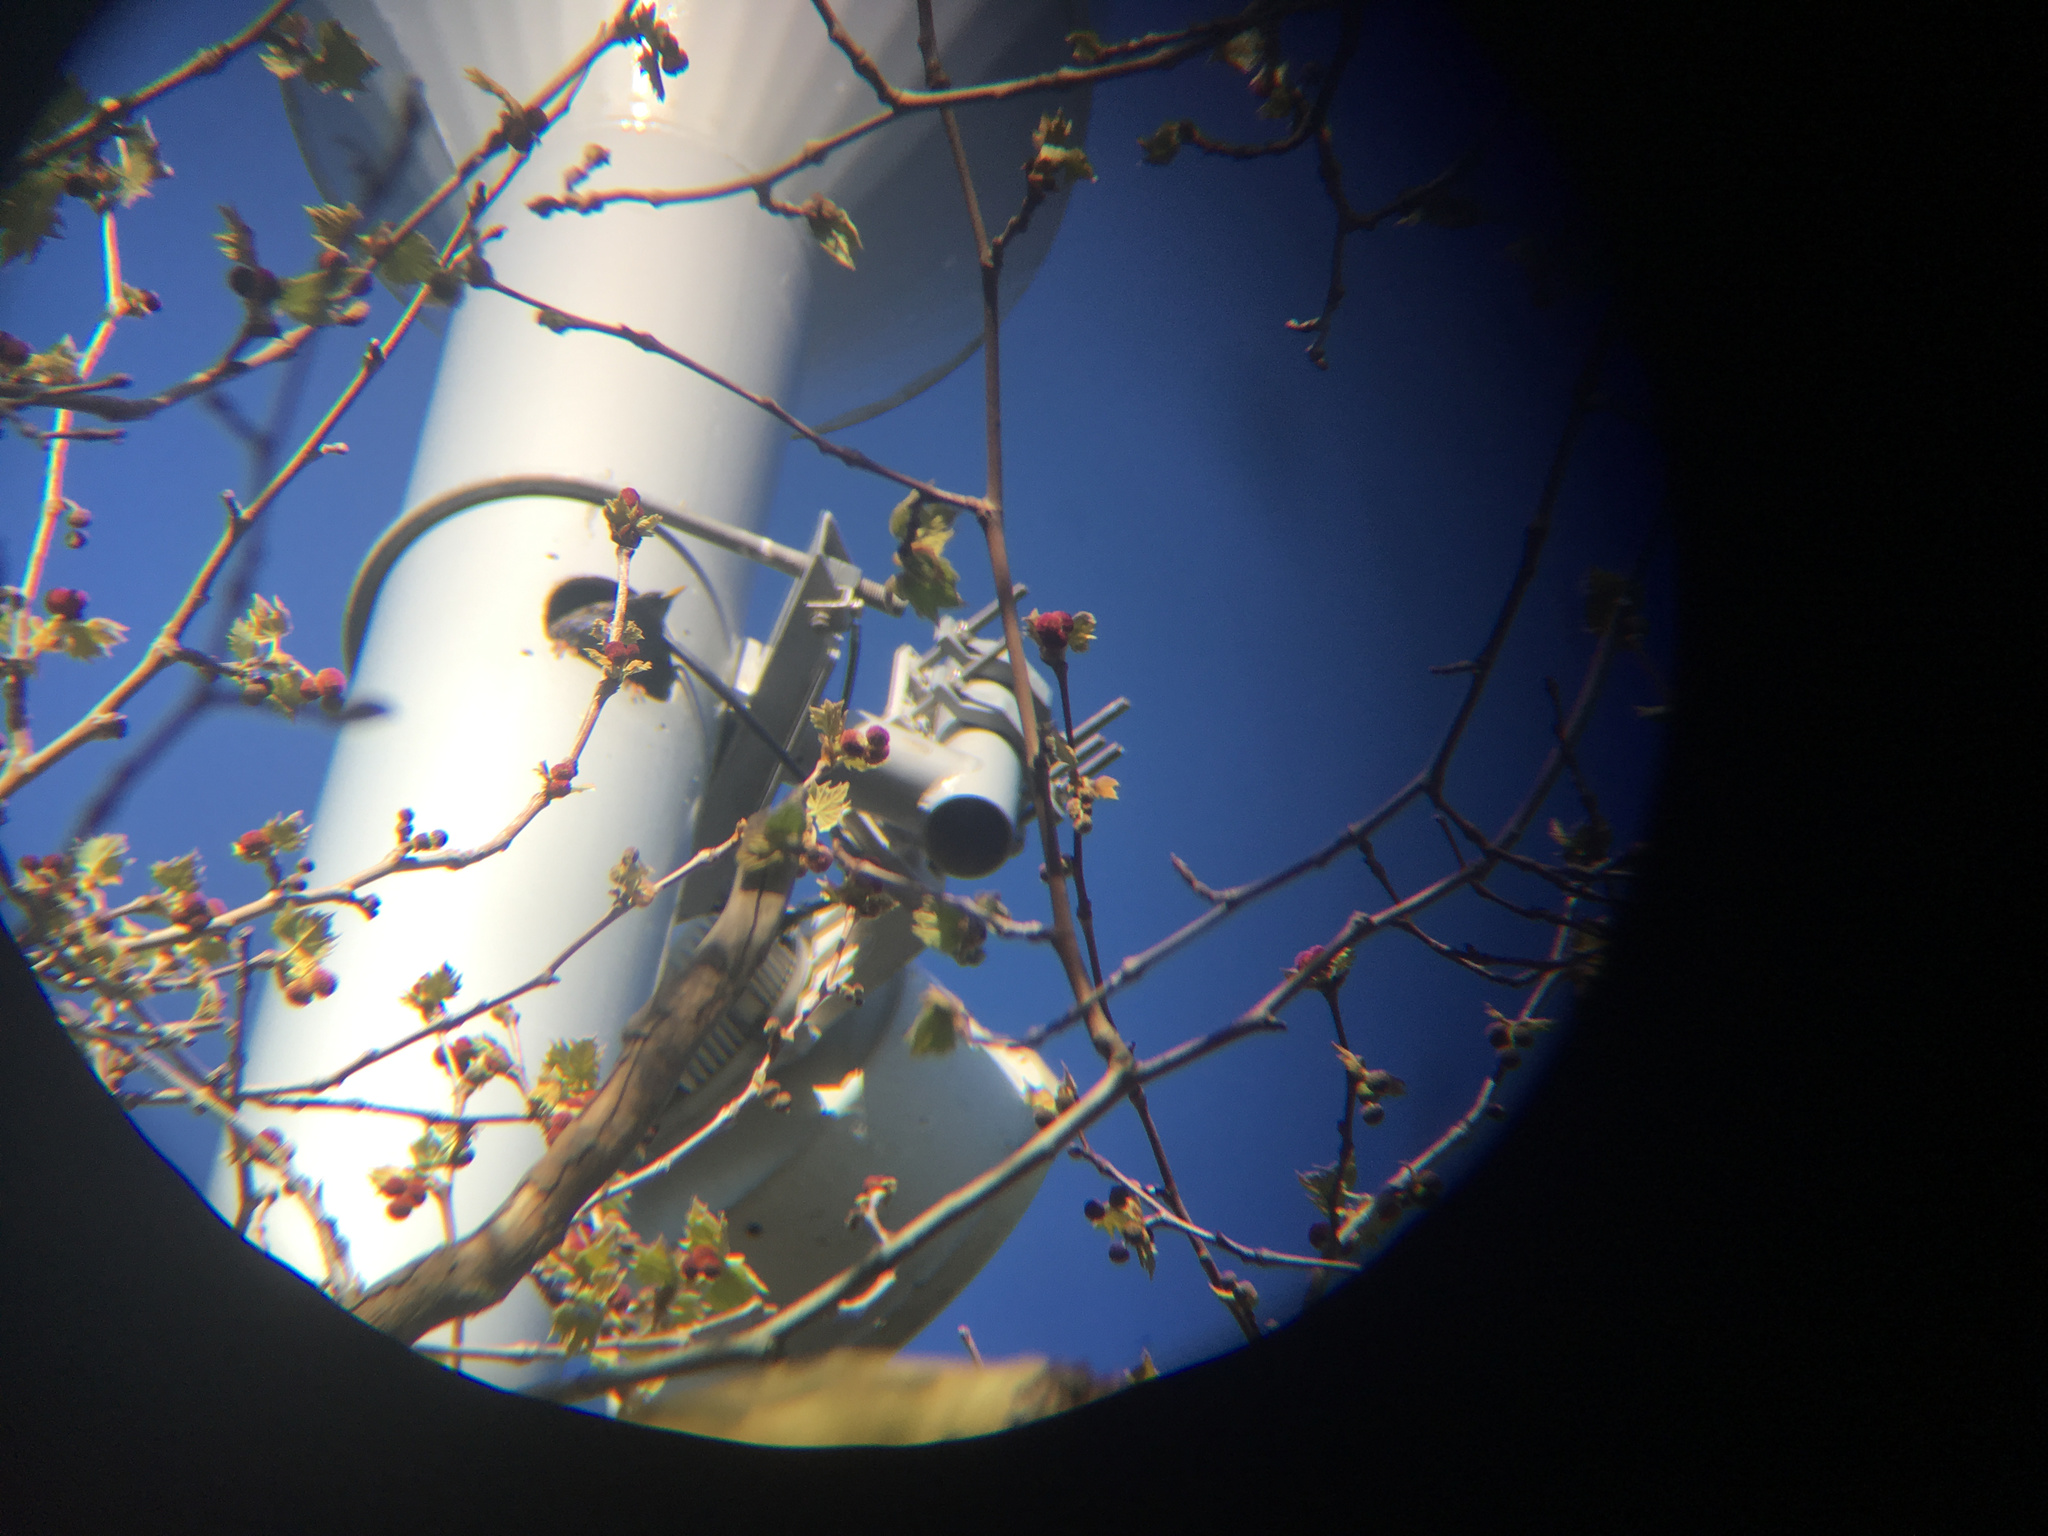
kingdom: Animalia
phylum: Chordata
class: Aves
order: Passeriformes
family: Sturnidae
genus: Sturnus
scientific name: Sturnus vulgaris
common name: Common starling
